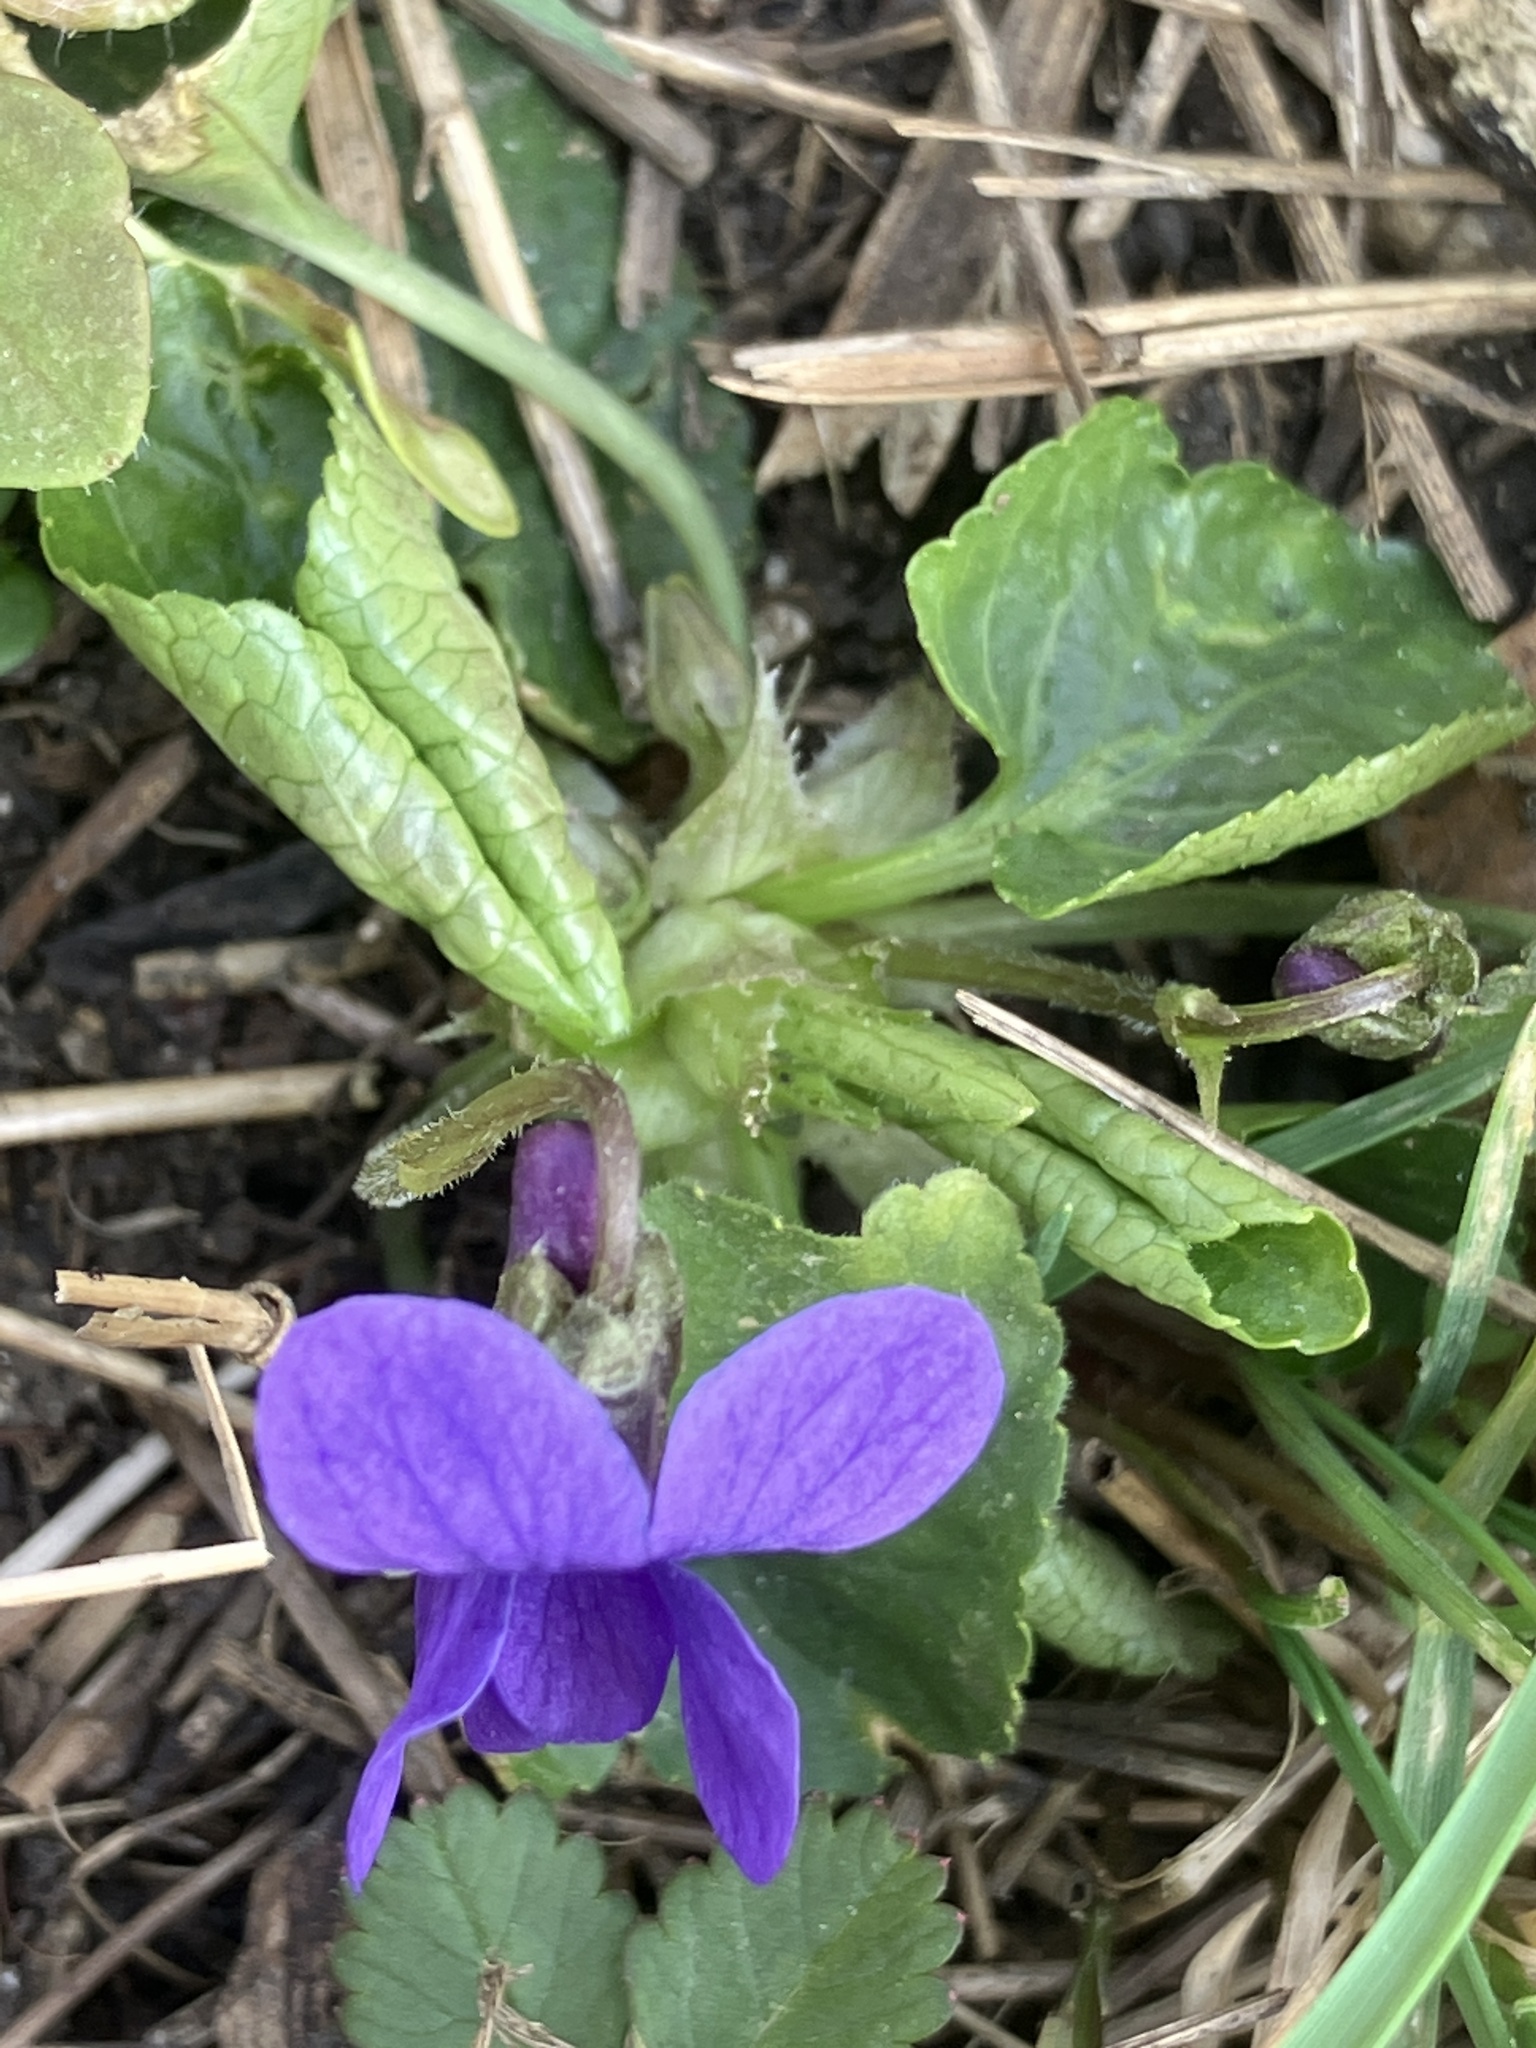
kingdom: Plantae
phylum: Tracheophyta
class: Magnoliopsida
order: Malpighiales
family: Violaceae
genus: Viola
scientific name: Viola odorata
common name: Sweet violet
